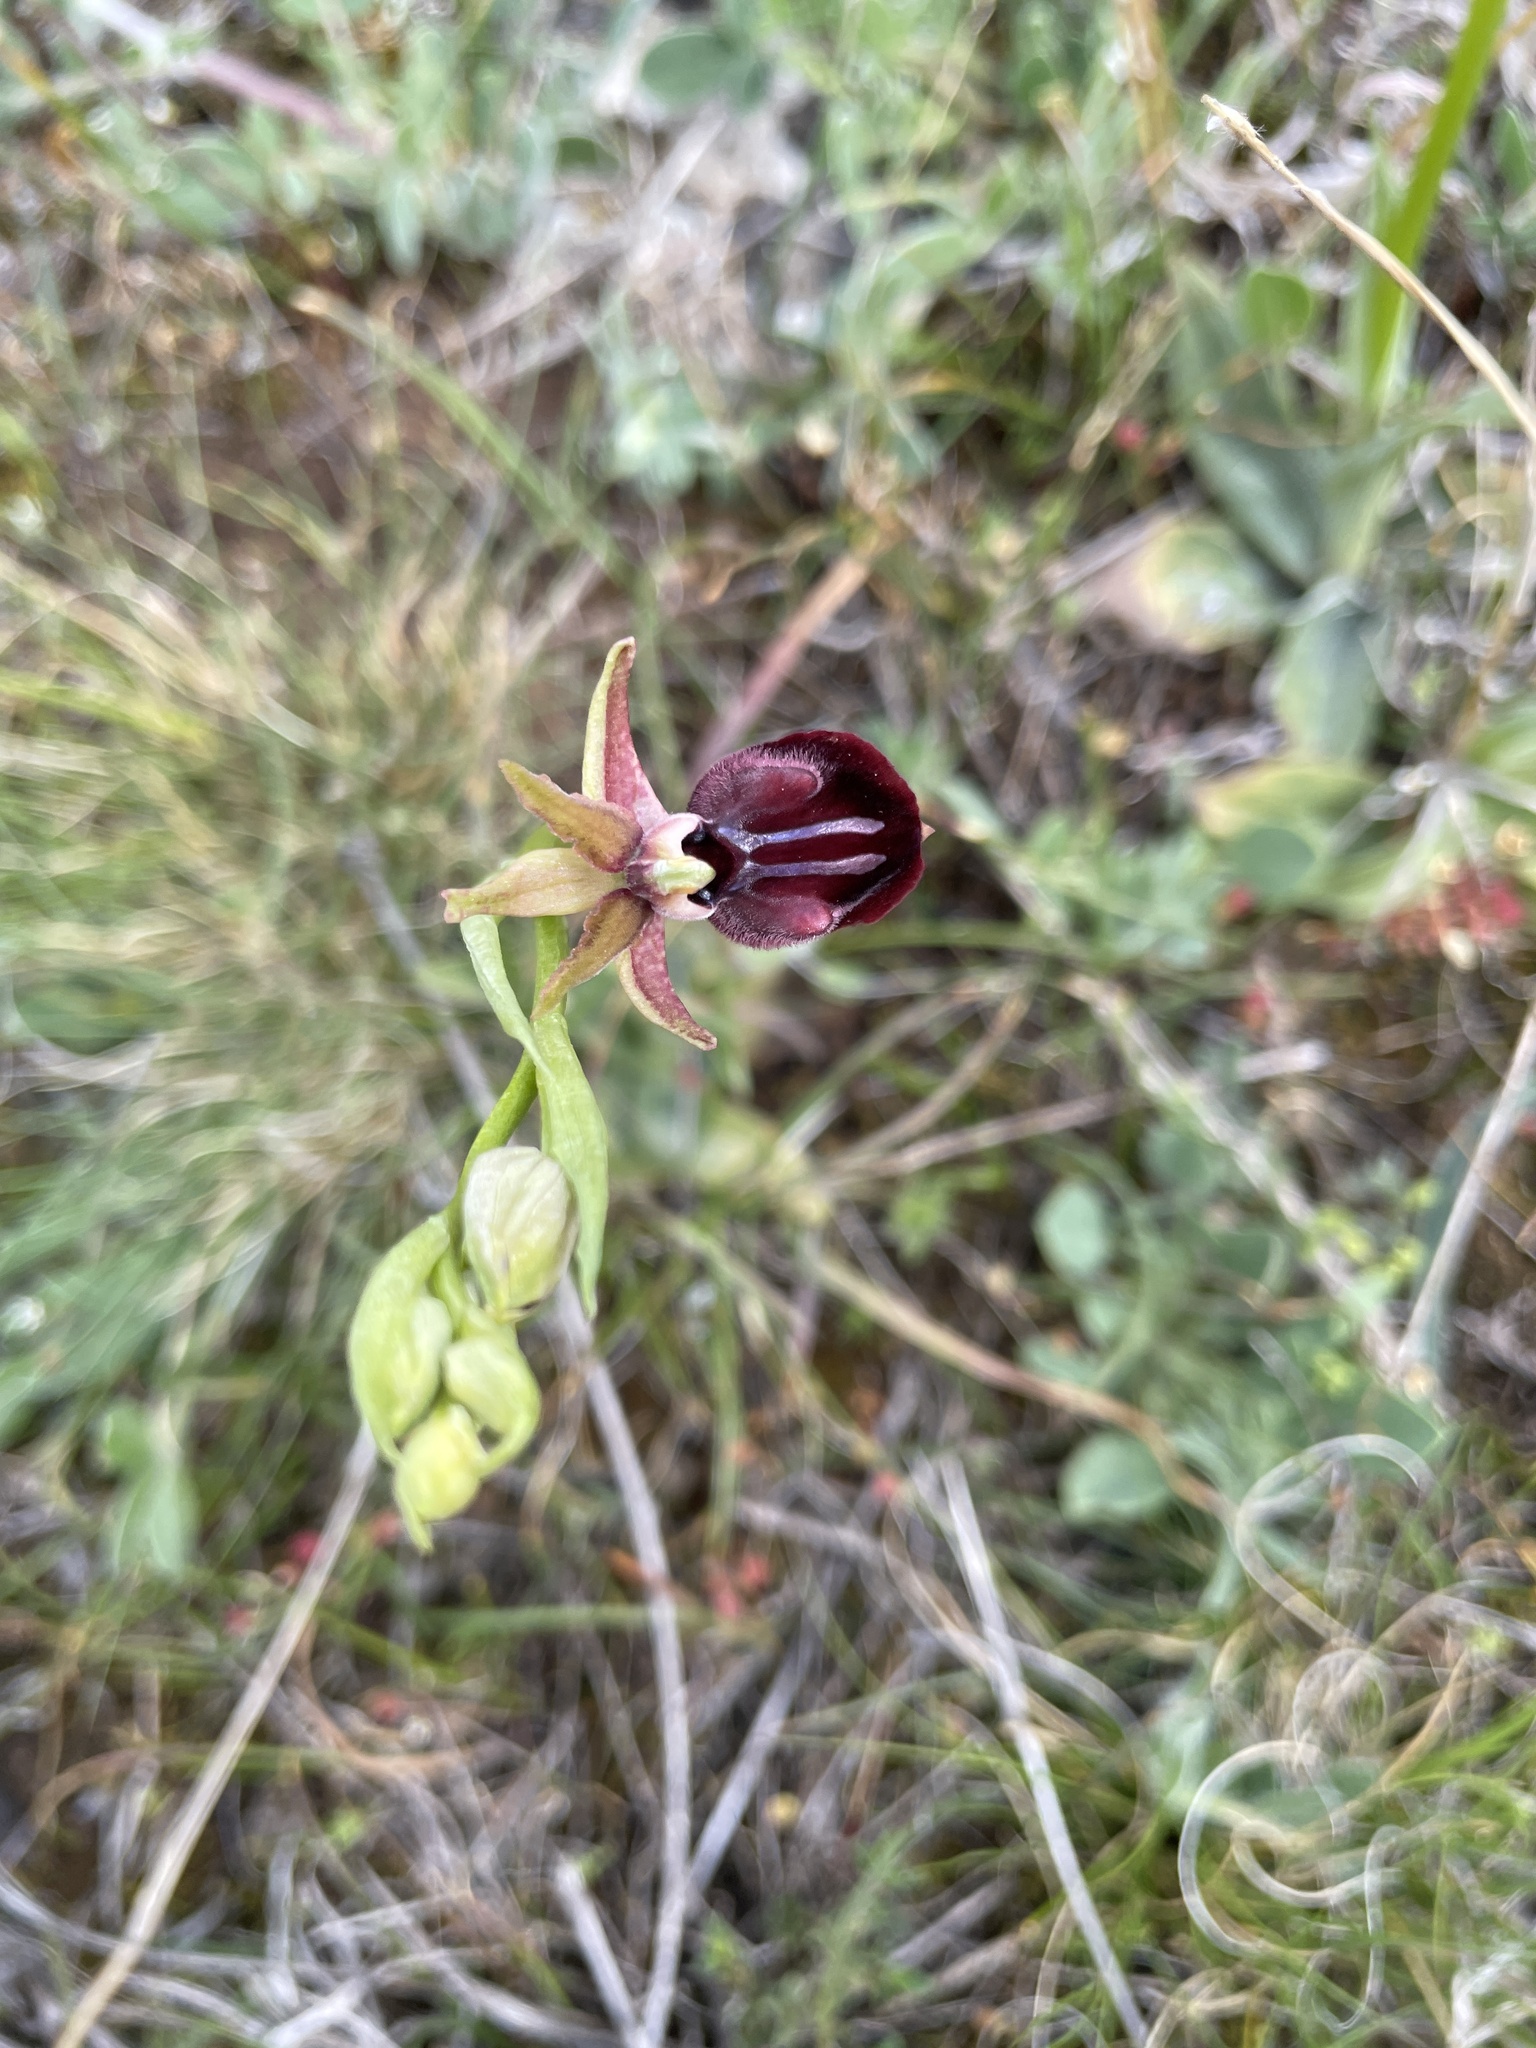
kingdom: Plantae
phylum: Tracheophyta
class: Liliopsida
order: Asparagales
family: Orchidaceae
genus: Ophrys
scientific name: Ophrys sphegodes
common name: Early spider-orchid
